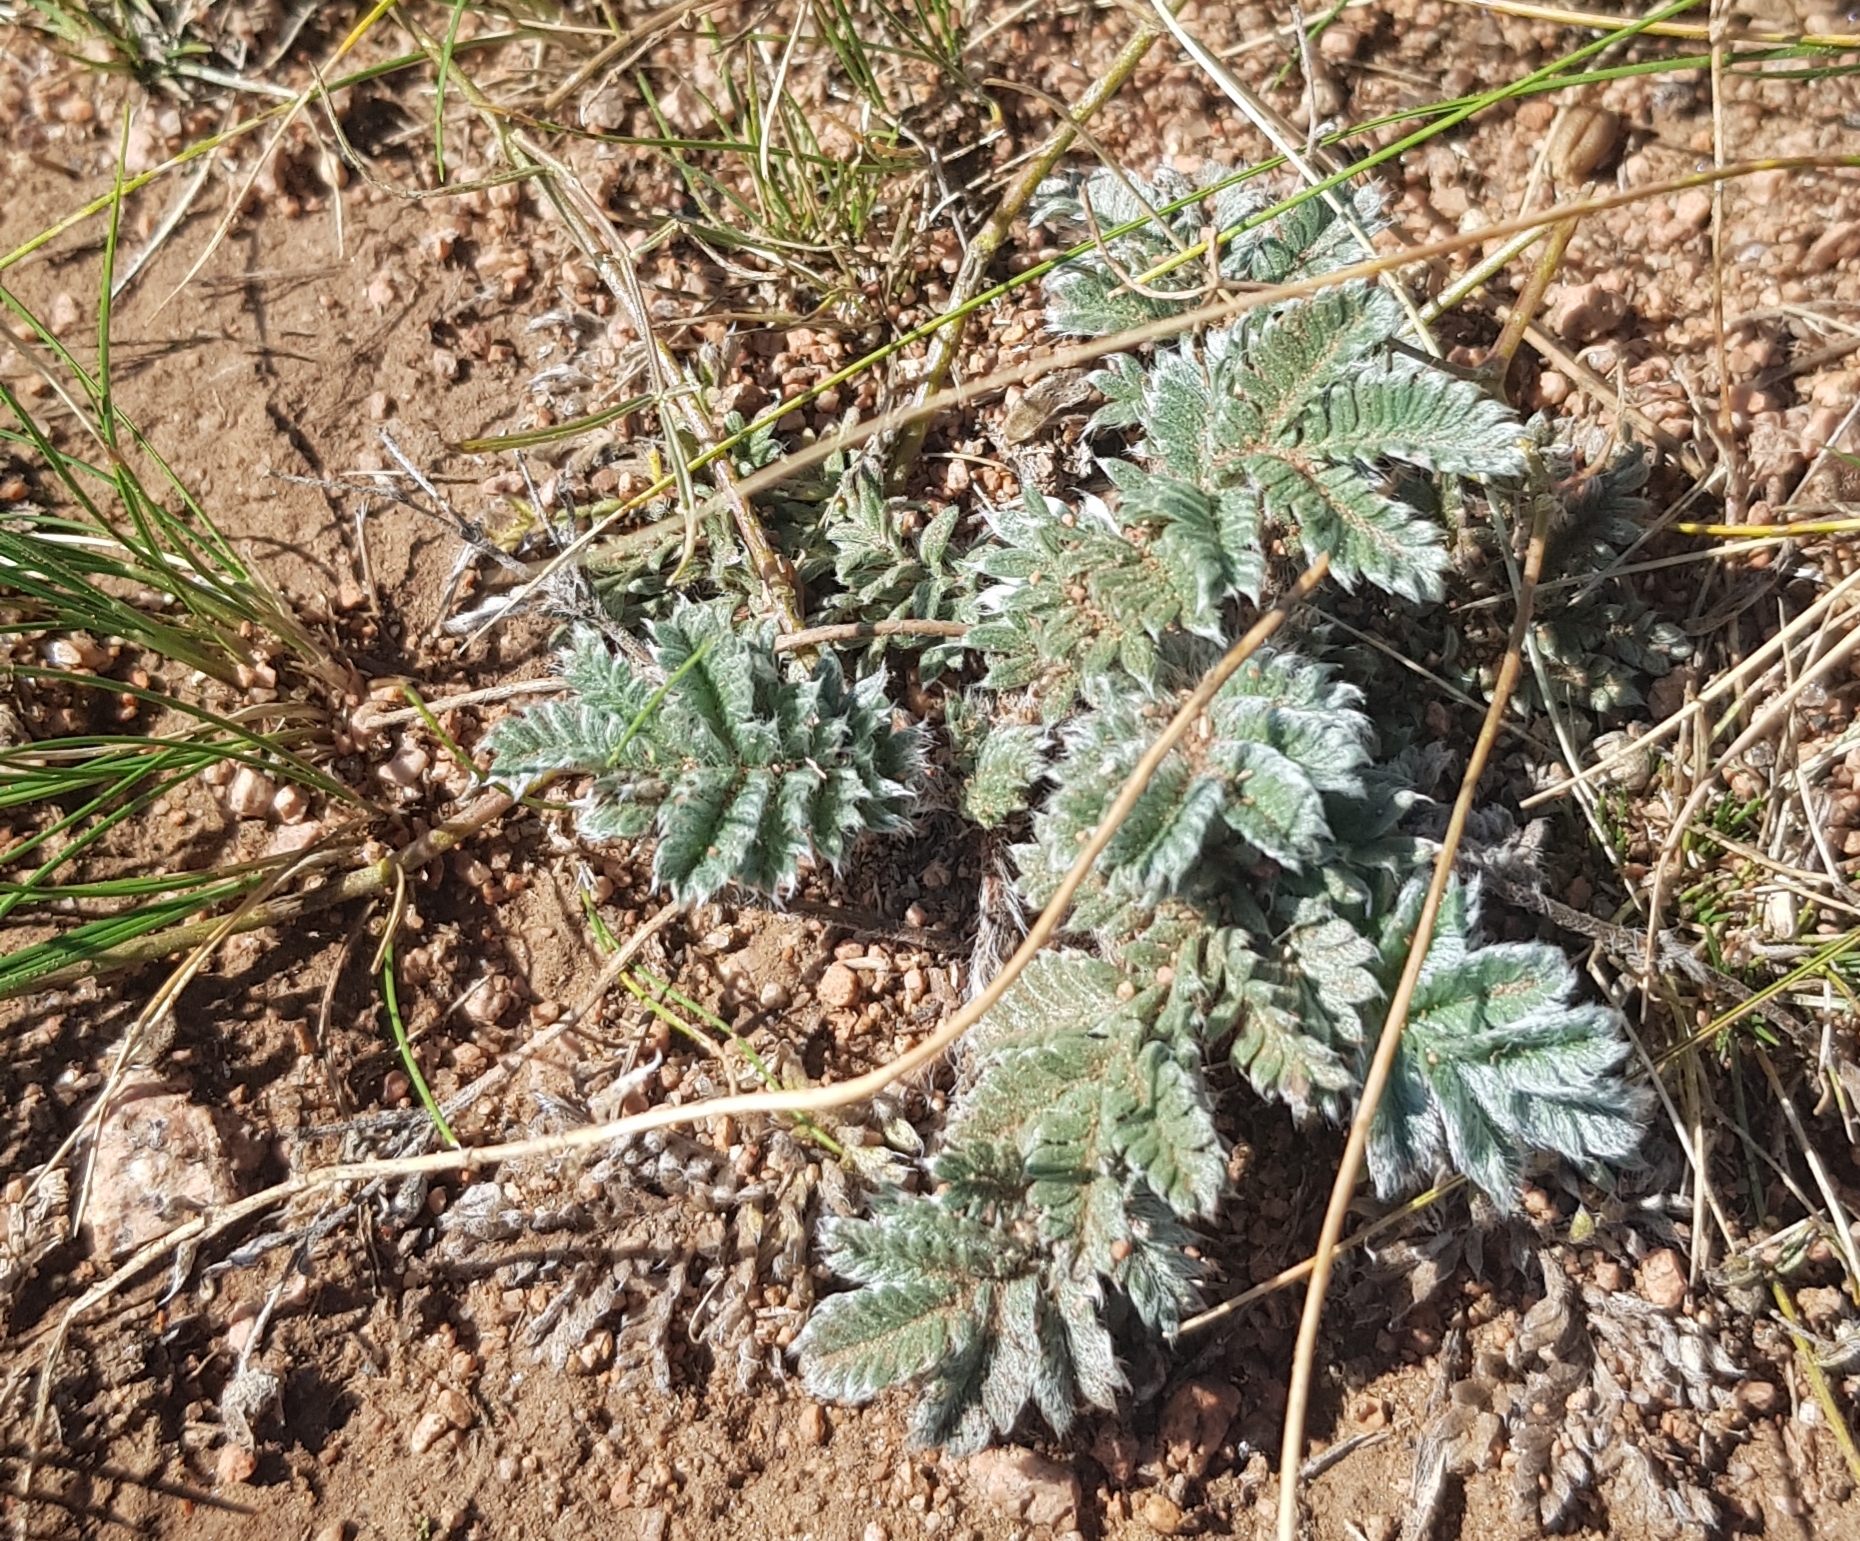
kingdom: Plantae
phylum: Tracheophyta
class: Magnoliopsida
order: Rosales
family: Rosaceae
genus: Potentilla
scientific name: Potentilla sericea
